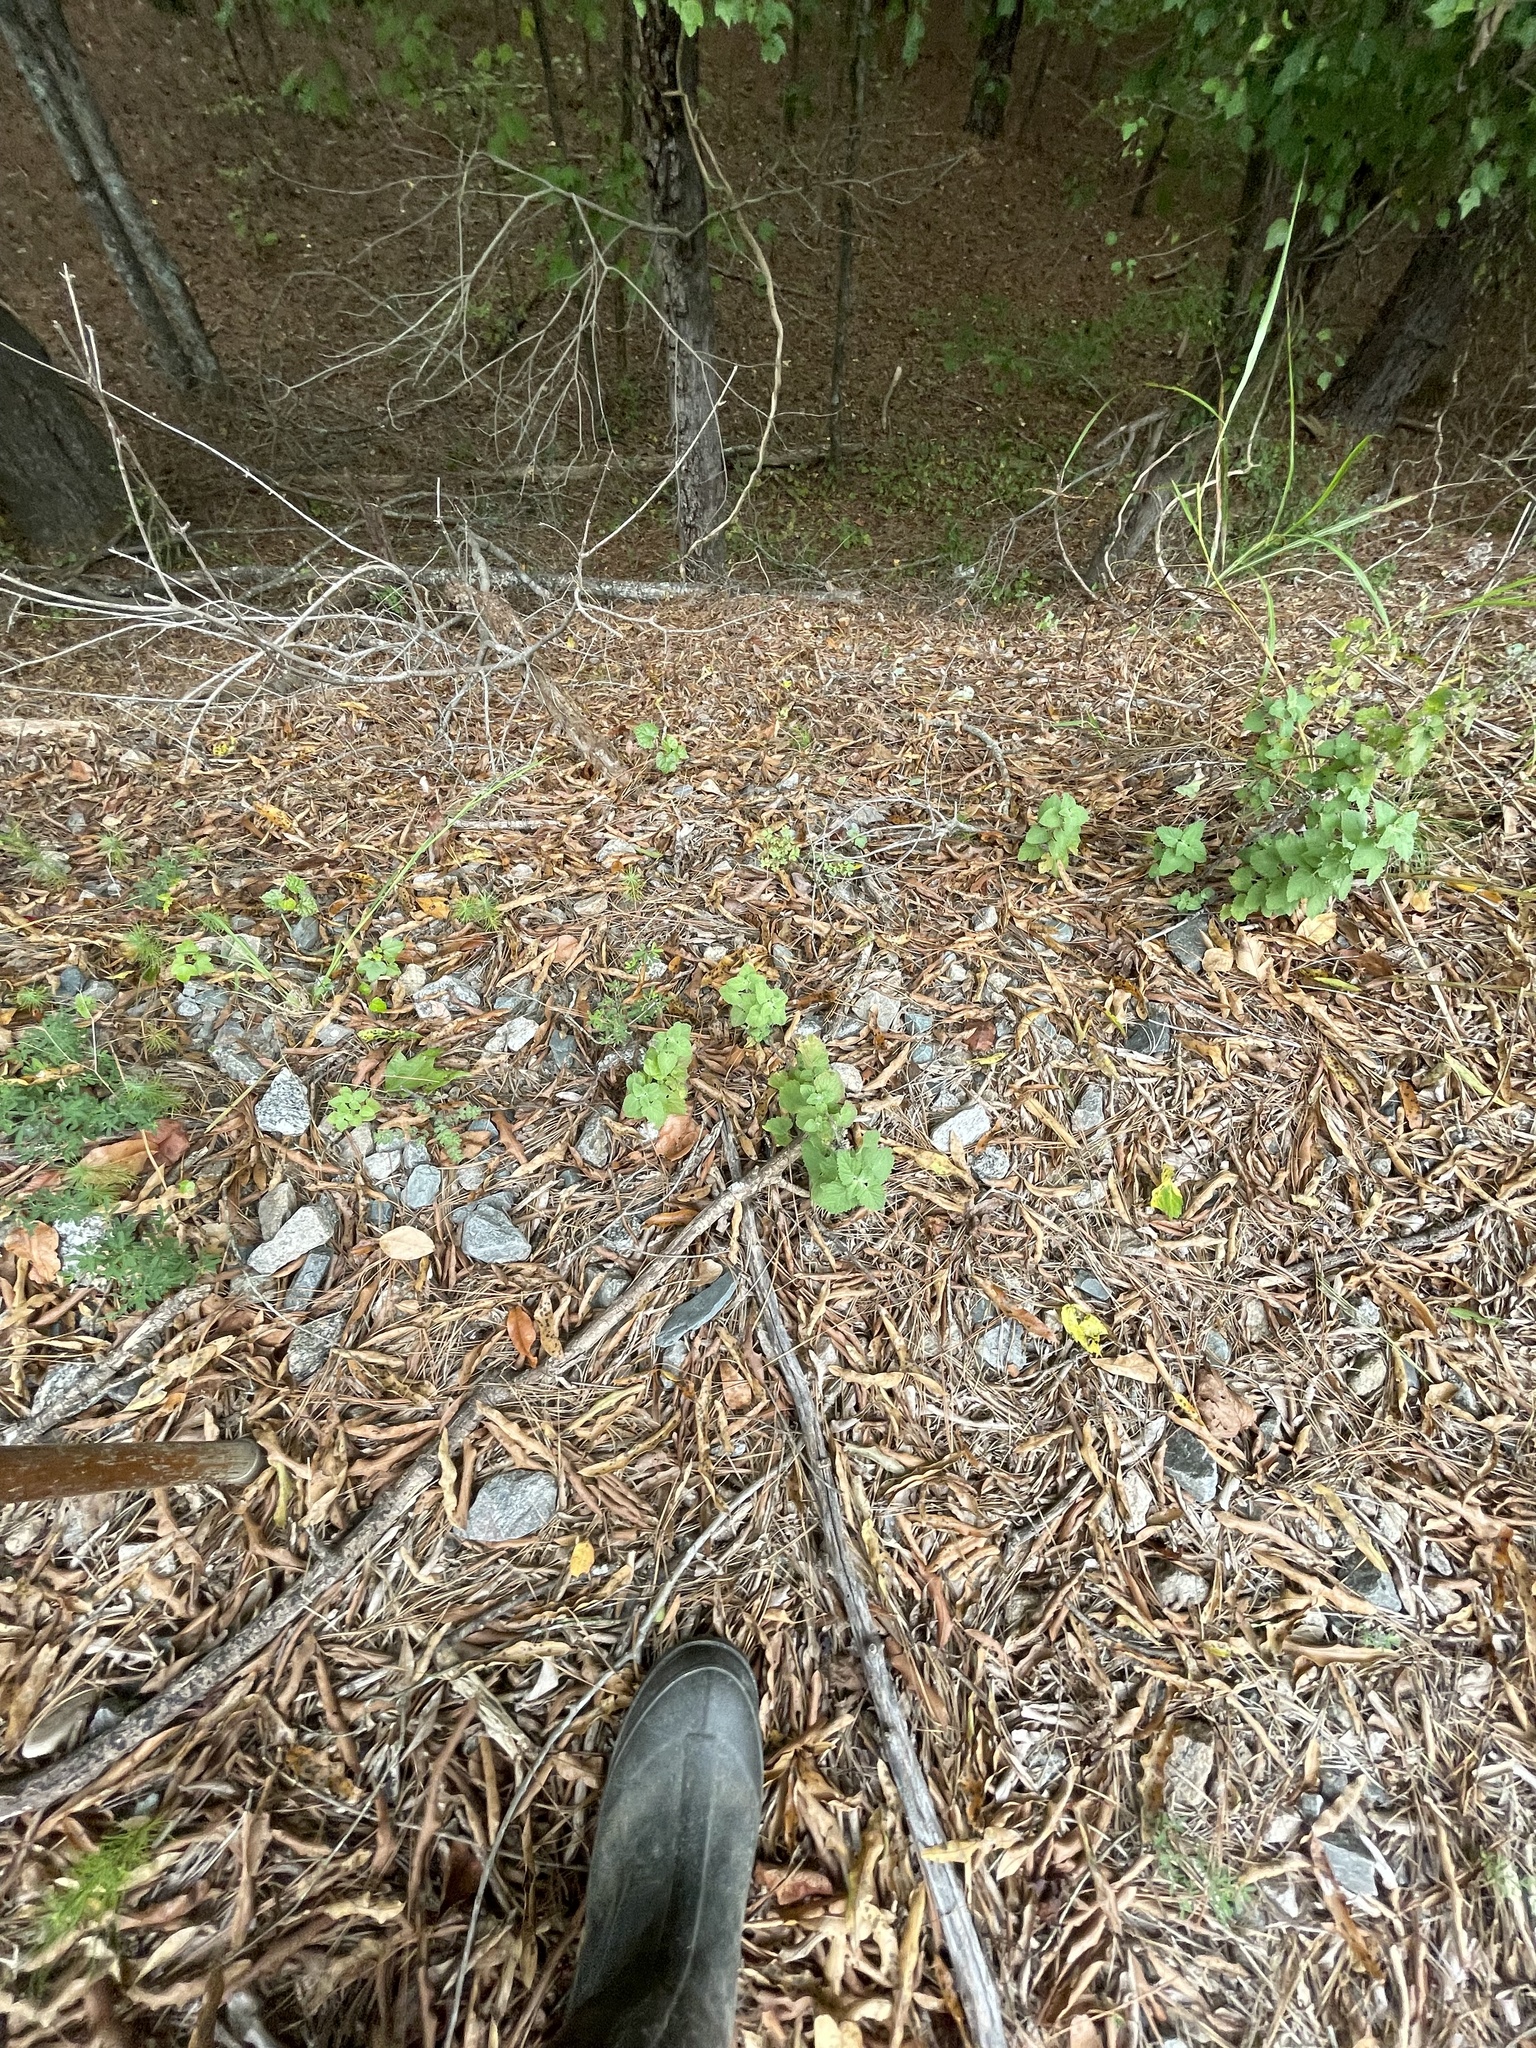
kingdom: Plantae
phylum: Tracheophyta
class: Magnoliopsida
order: Lamiales
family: Lamiaceae
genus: Nepeta
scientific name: Nepeta cataria
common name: Catnip
